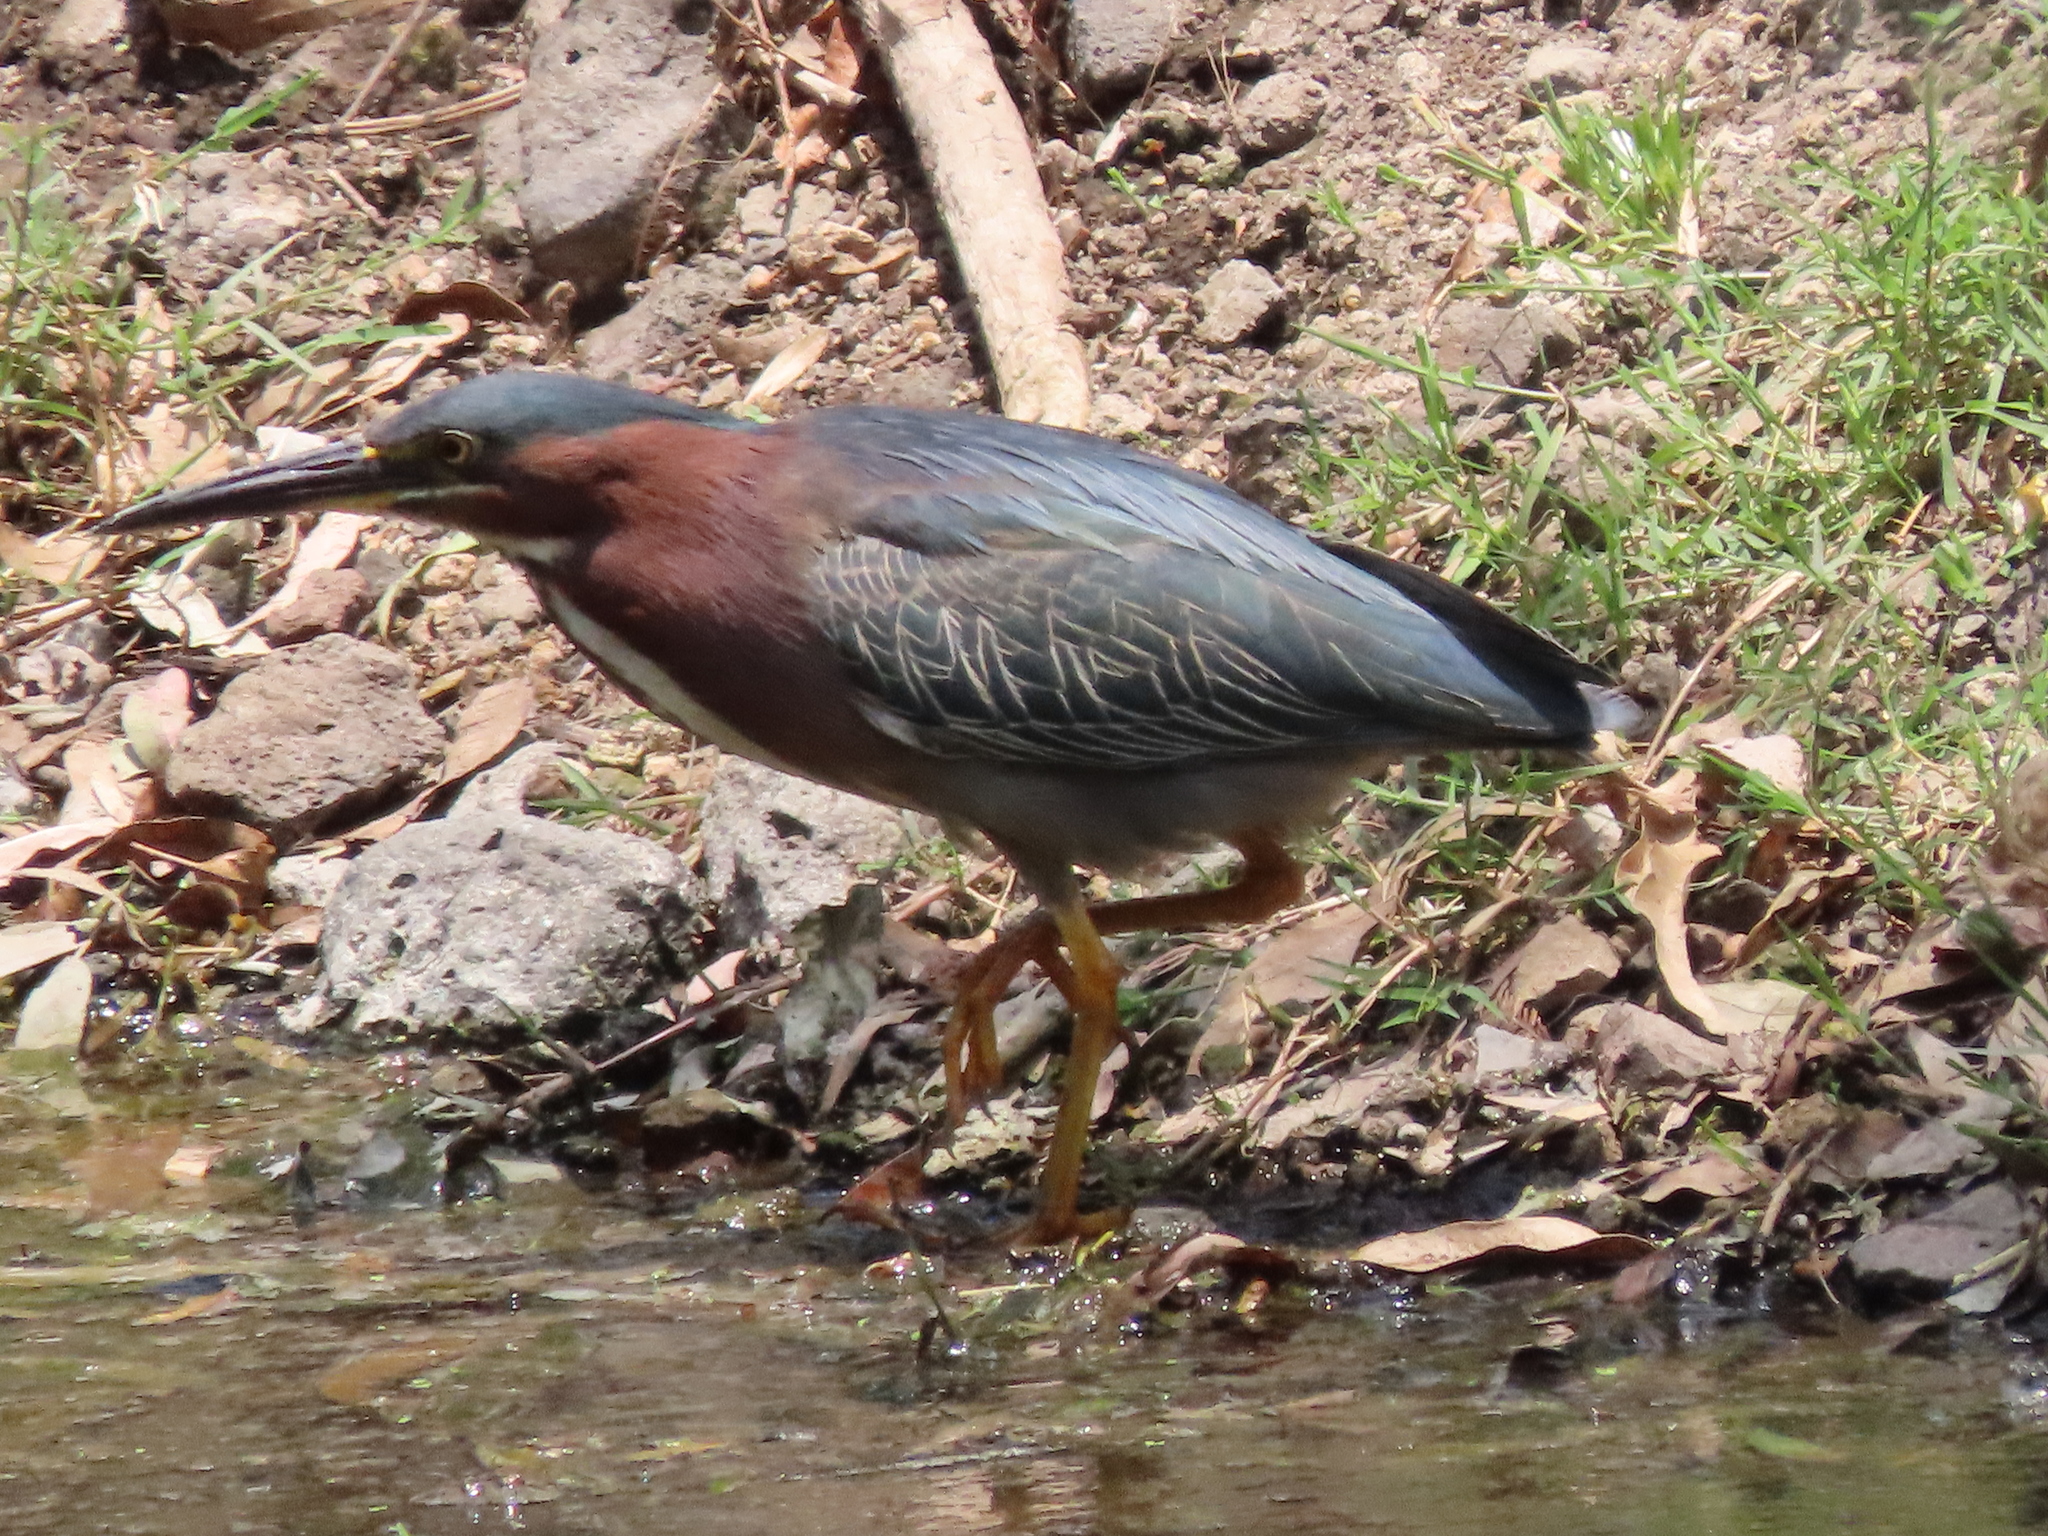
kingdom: Animalia
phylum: Chordata
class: Aves
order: Pelecaniformes
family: Ardeidae
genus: Butorides
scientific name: Butorides virescens
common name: Green heron
